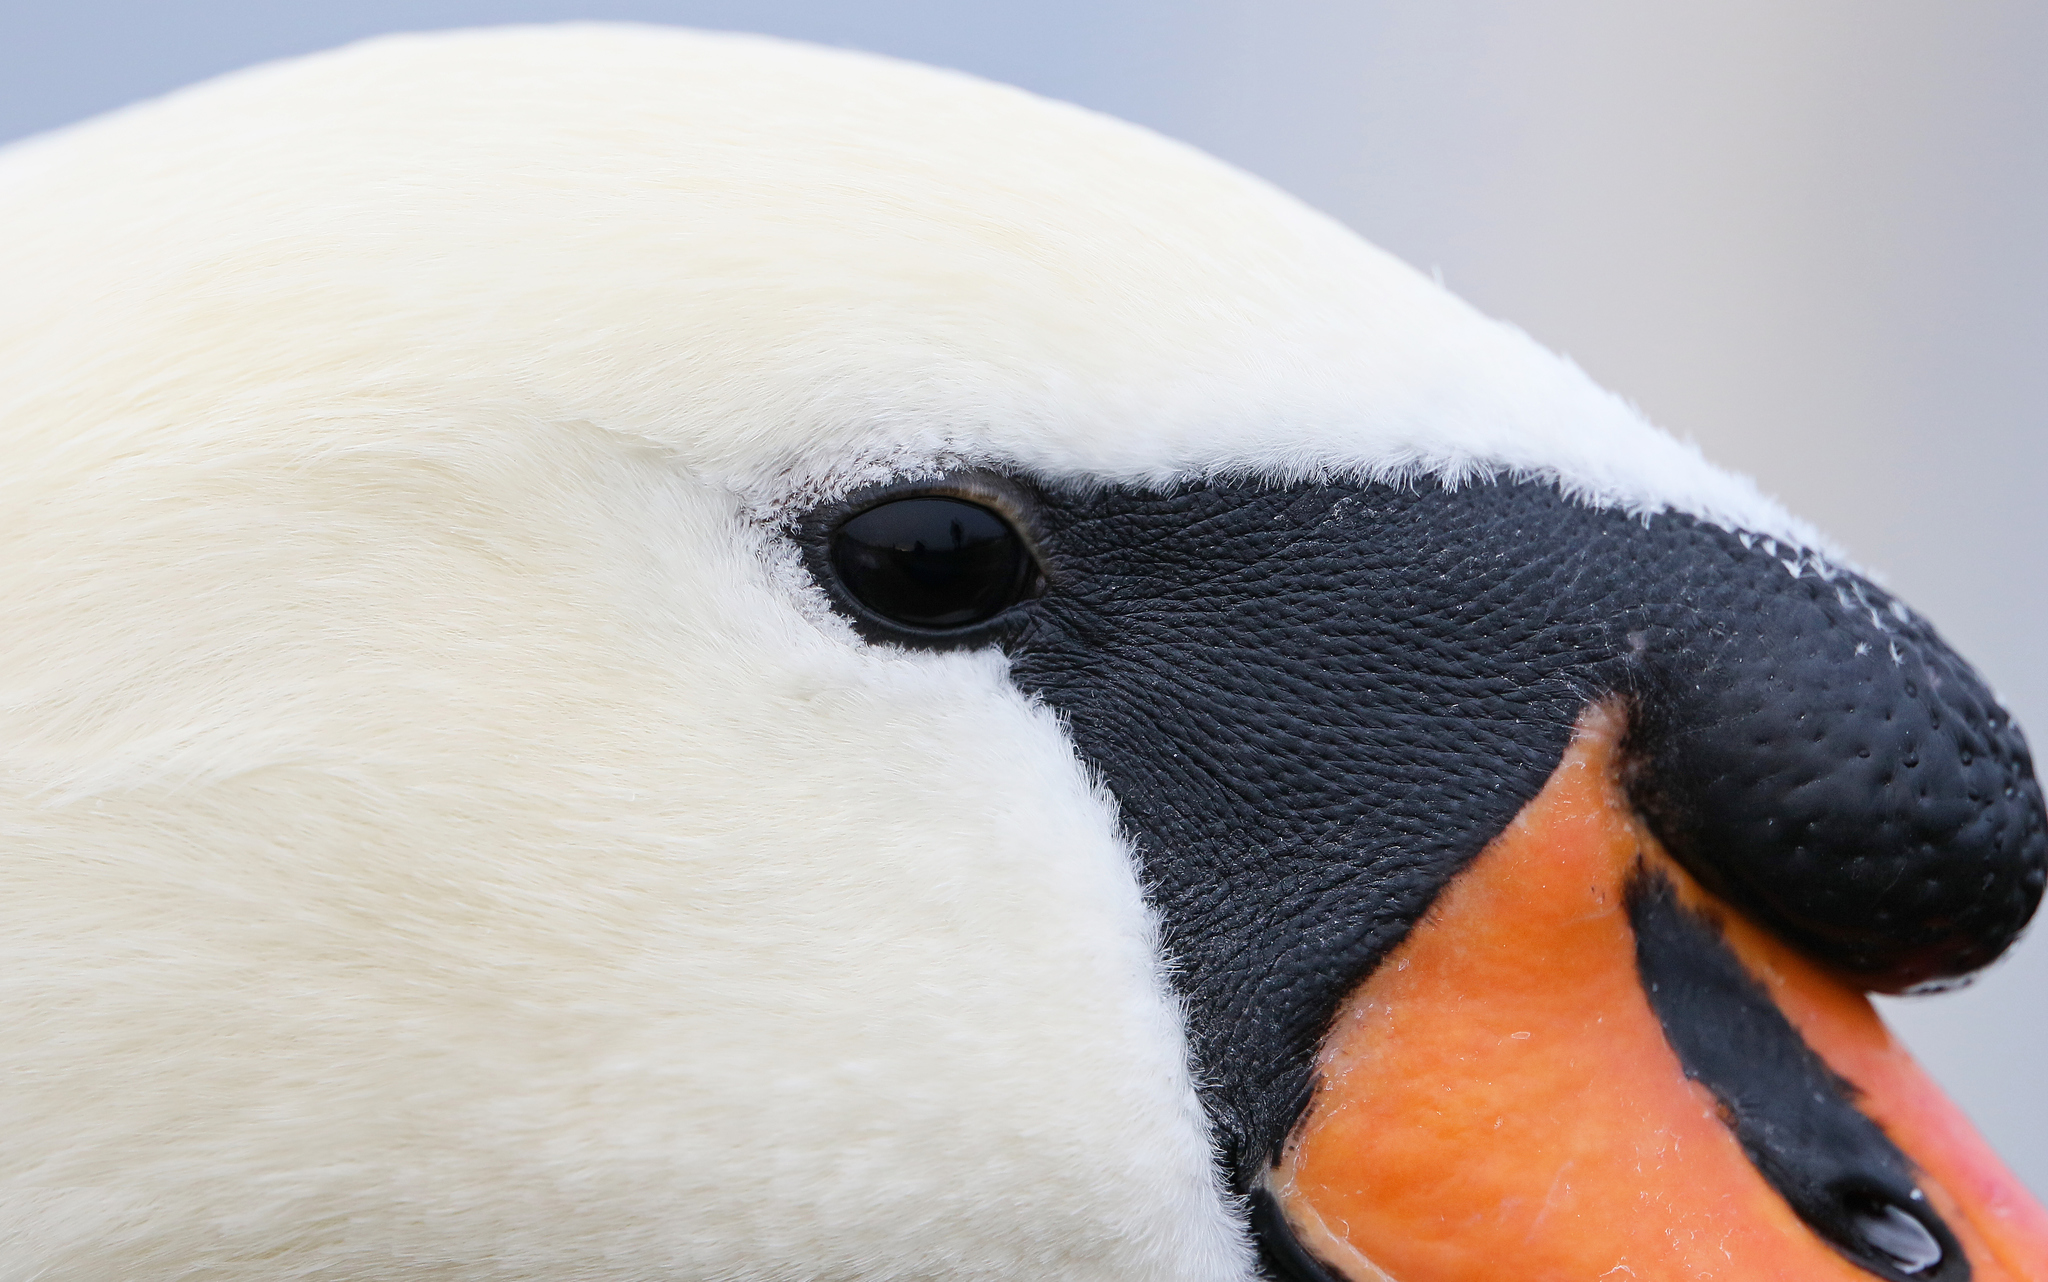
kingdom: Animalia
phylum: Chordata
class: Aves
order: Anseriformes
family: Anatidae
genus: Cygnus
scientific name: Cygnus olor
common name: Mute swan
